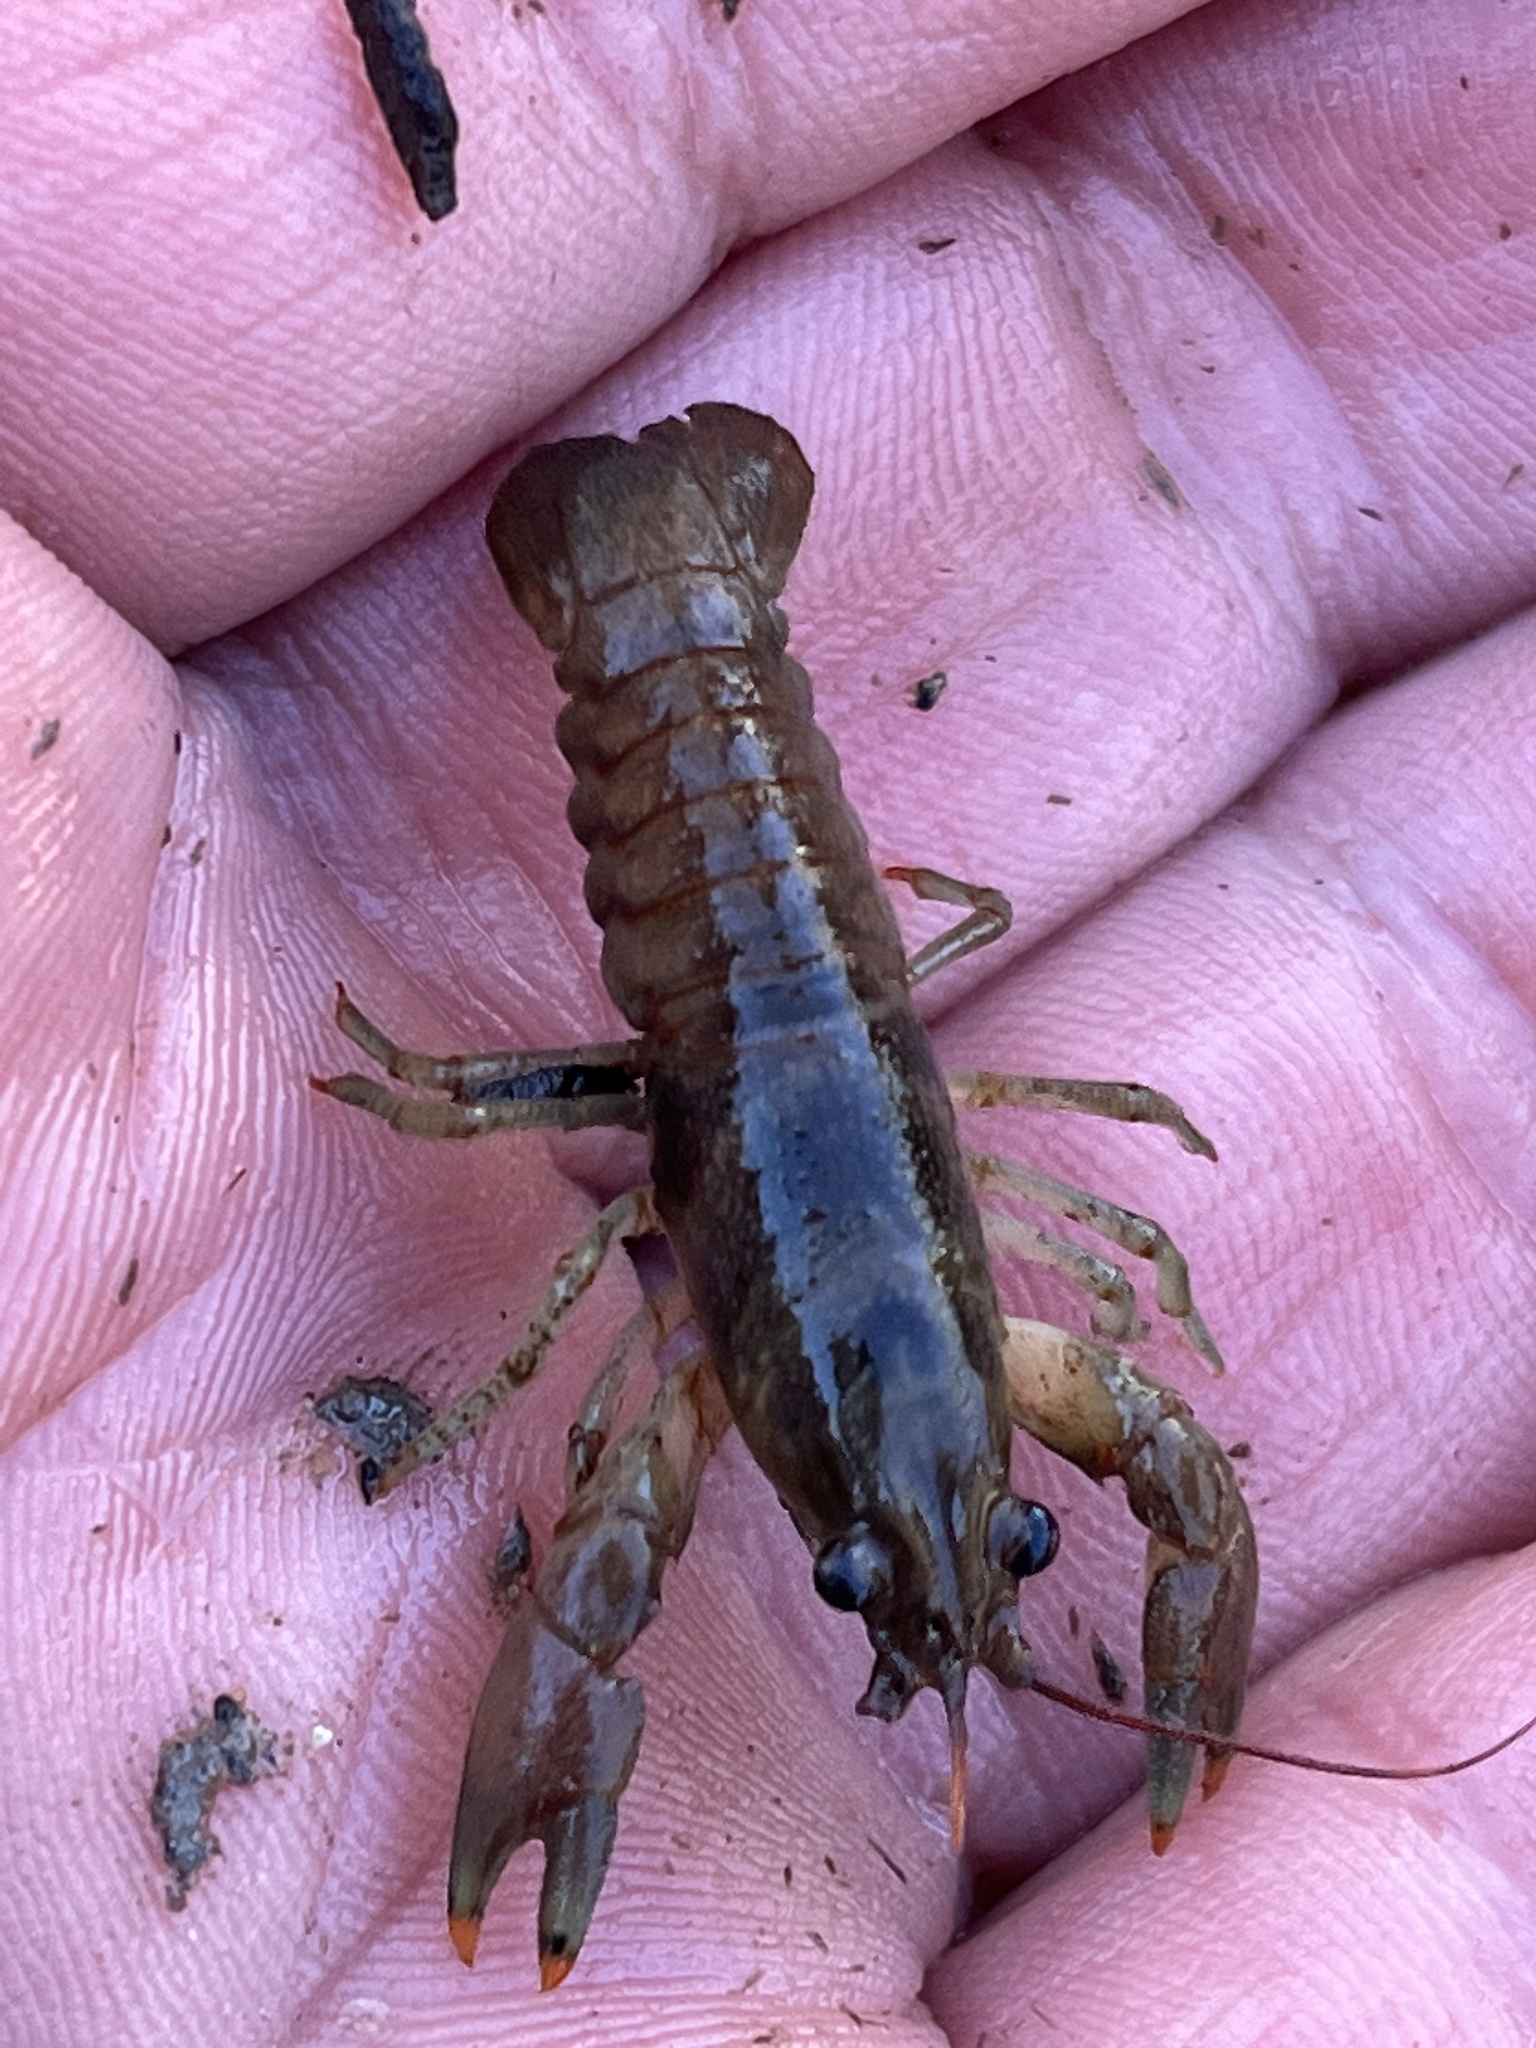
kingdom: Animalia
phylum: Arthropoda
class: Malacostraca
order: Decapoda
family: Cambaridae
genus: Faxonius
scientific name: Faxonius rusticus
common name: Rusty crayfish
